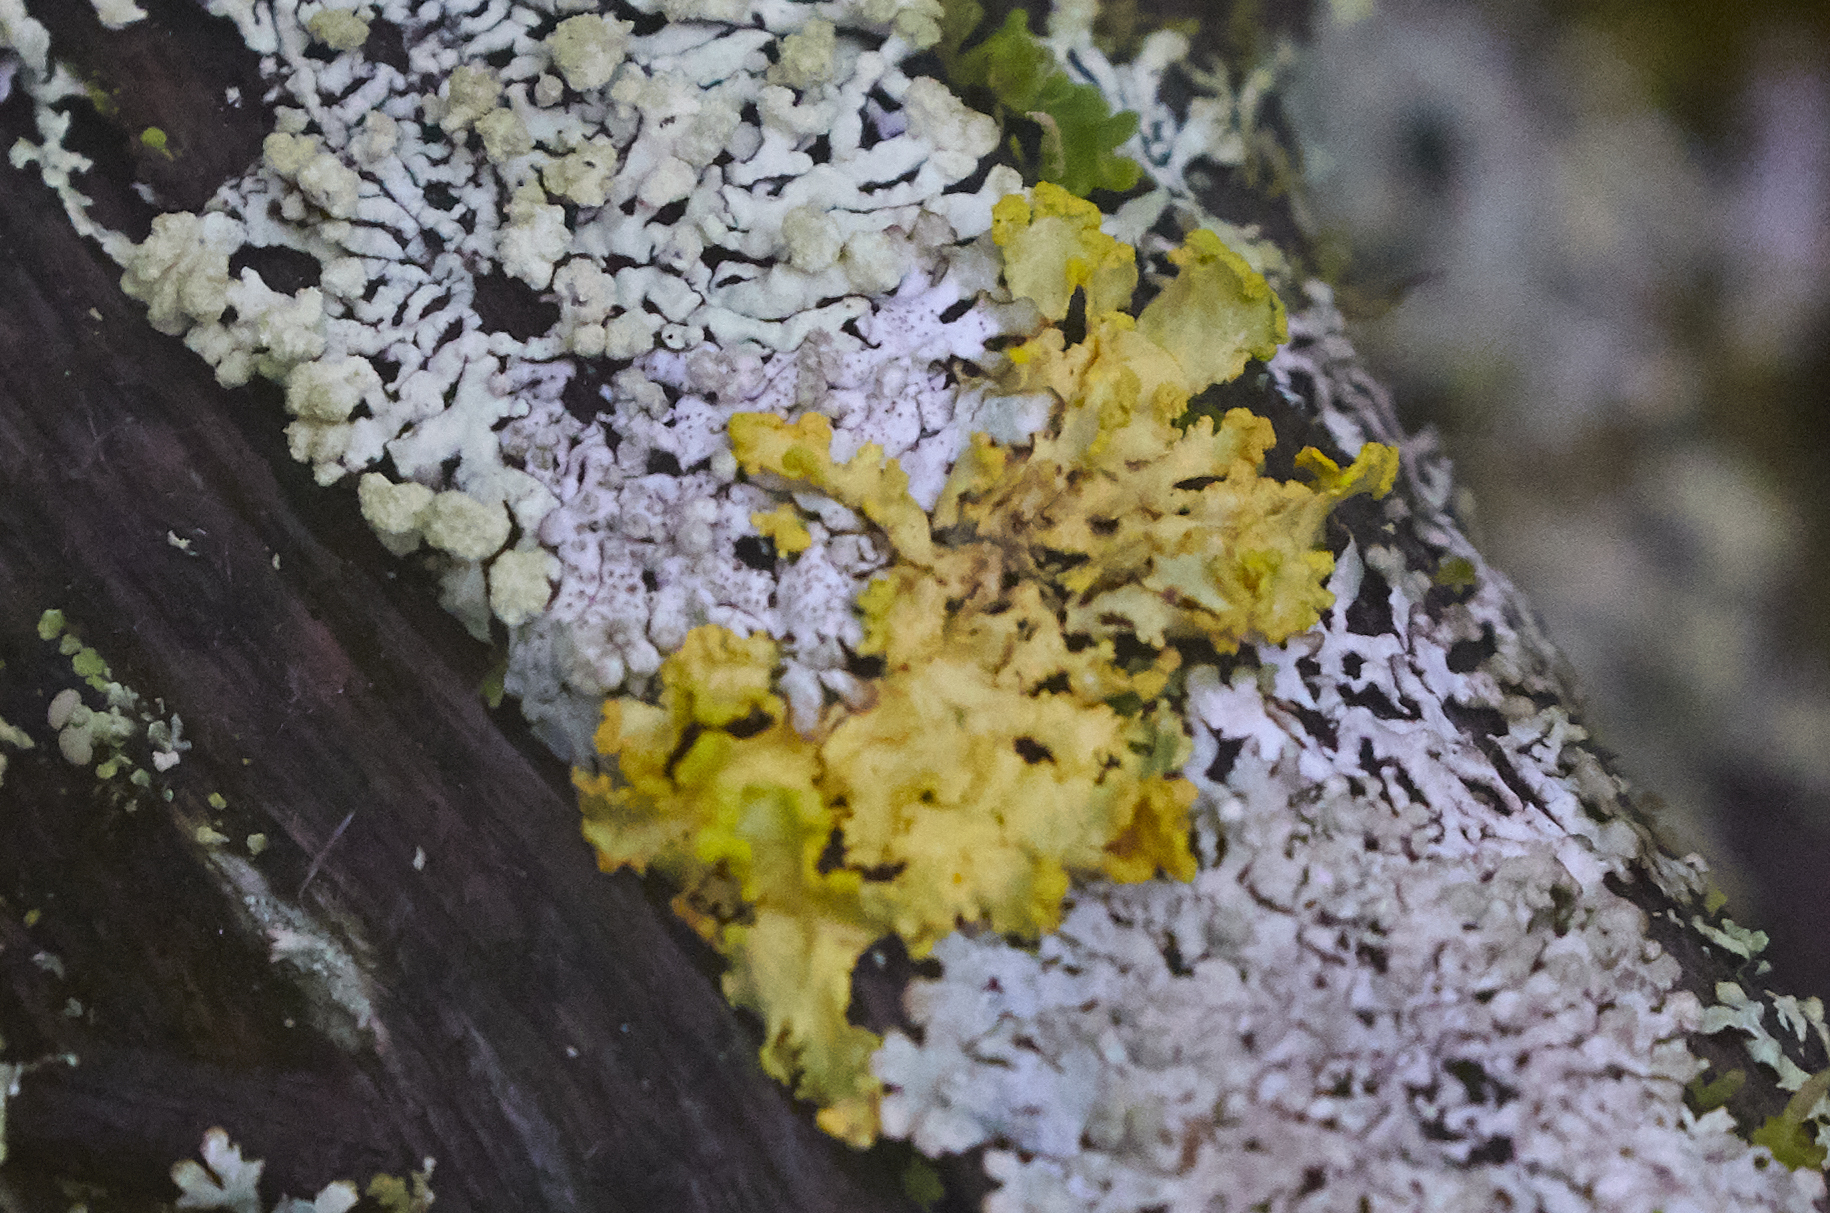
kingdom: Fungi
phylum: Ascomycota
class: Lecanoromycetes
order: Lecanorales
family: Parmeliaceae
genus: Vulpicida
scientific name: Vulpicida pinastri
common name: Powdered sunshine lichen
